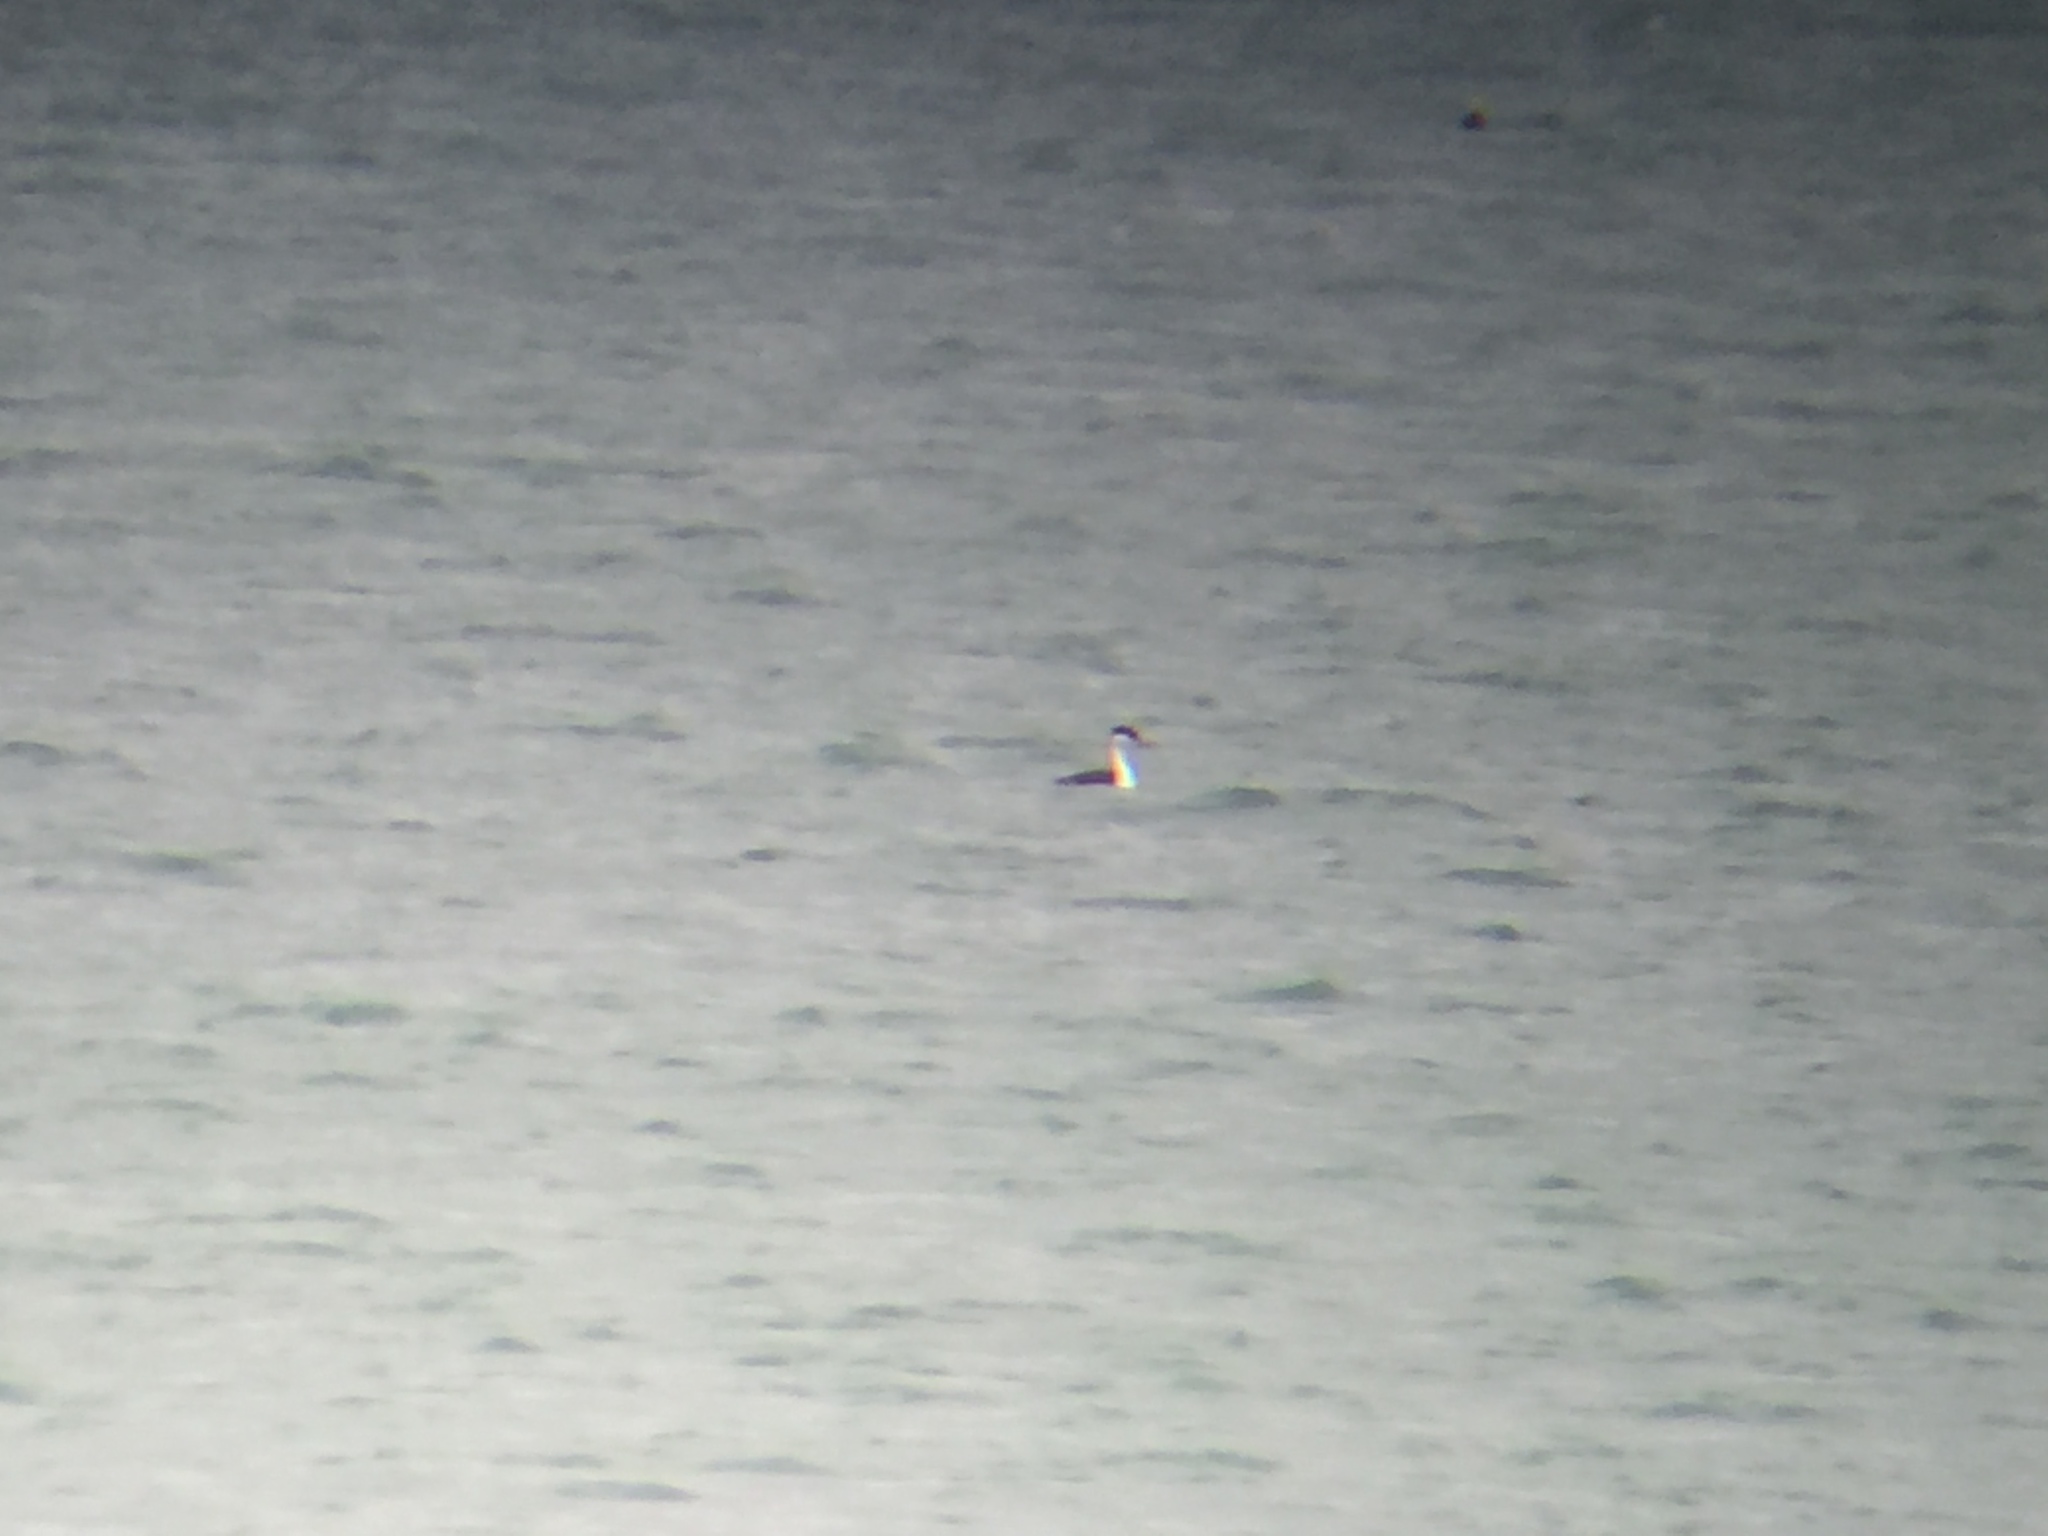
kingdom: Animalia
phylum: Chordata
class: Aves
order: Podicipediformes
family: Podicipedidae
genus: Aechmophorus
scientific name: Aechmophorus occidentalis
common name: Western grebe
